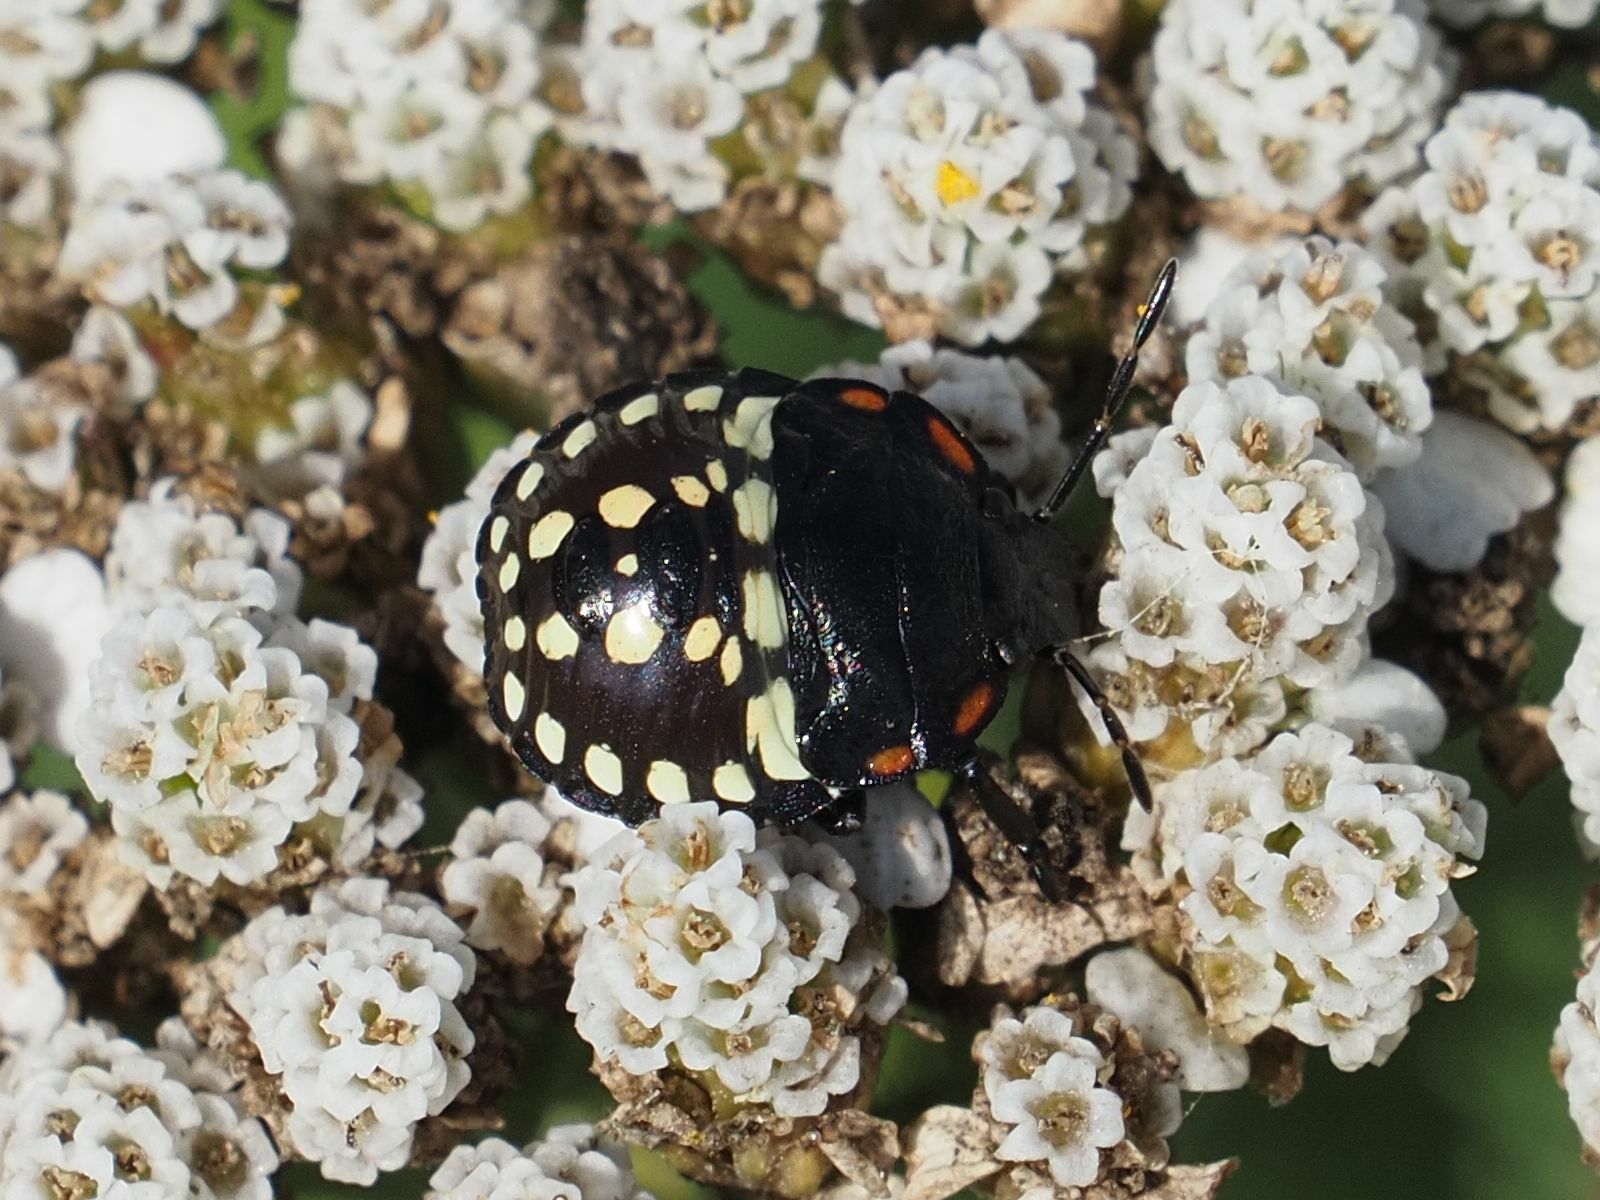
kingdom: Animalia
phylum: Arthropoda
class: Insecta
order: Hemiptera
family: Pentatomidae
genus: Nezara
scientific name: Nezara viridula
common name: Southern green stink bug
